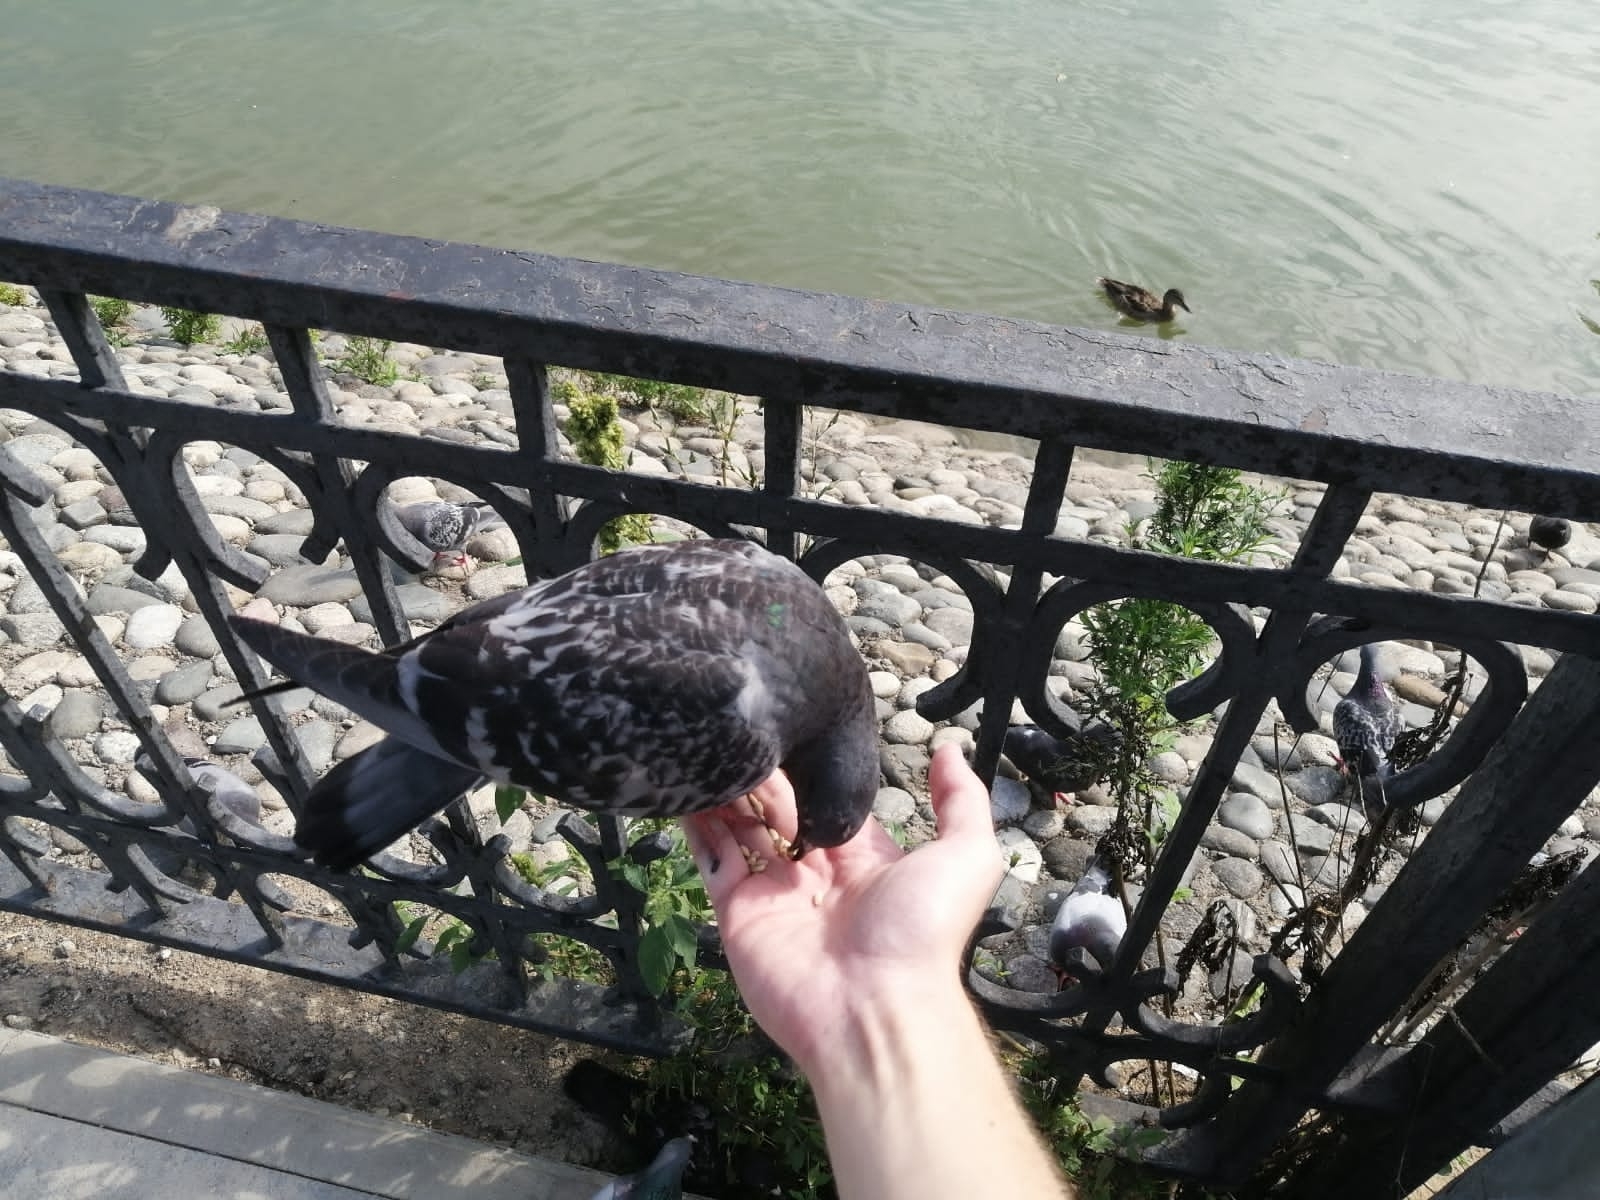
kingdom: Animalia
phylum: Chordata
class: Aves
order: Columbiformes
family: Columbidae
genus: Columba
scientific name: Columba livia
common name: Rock pigeon
